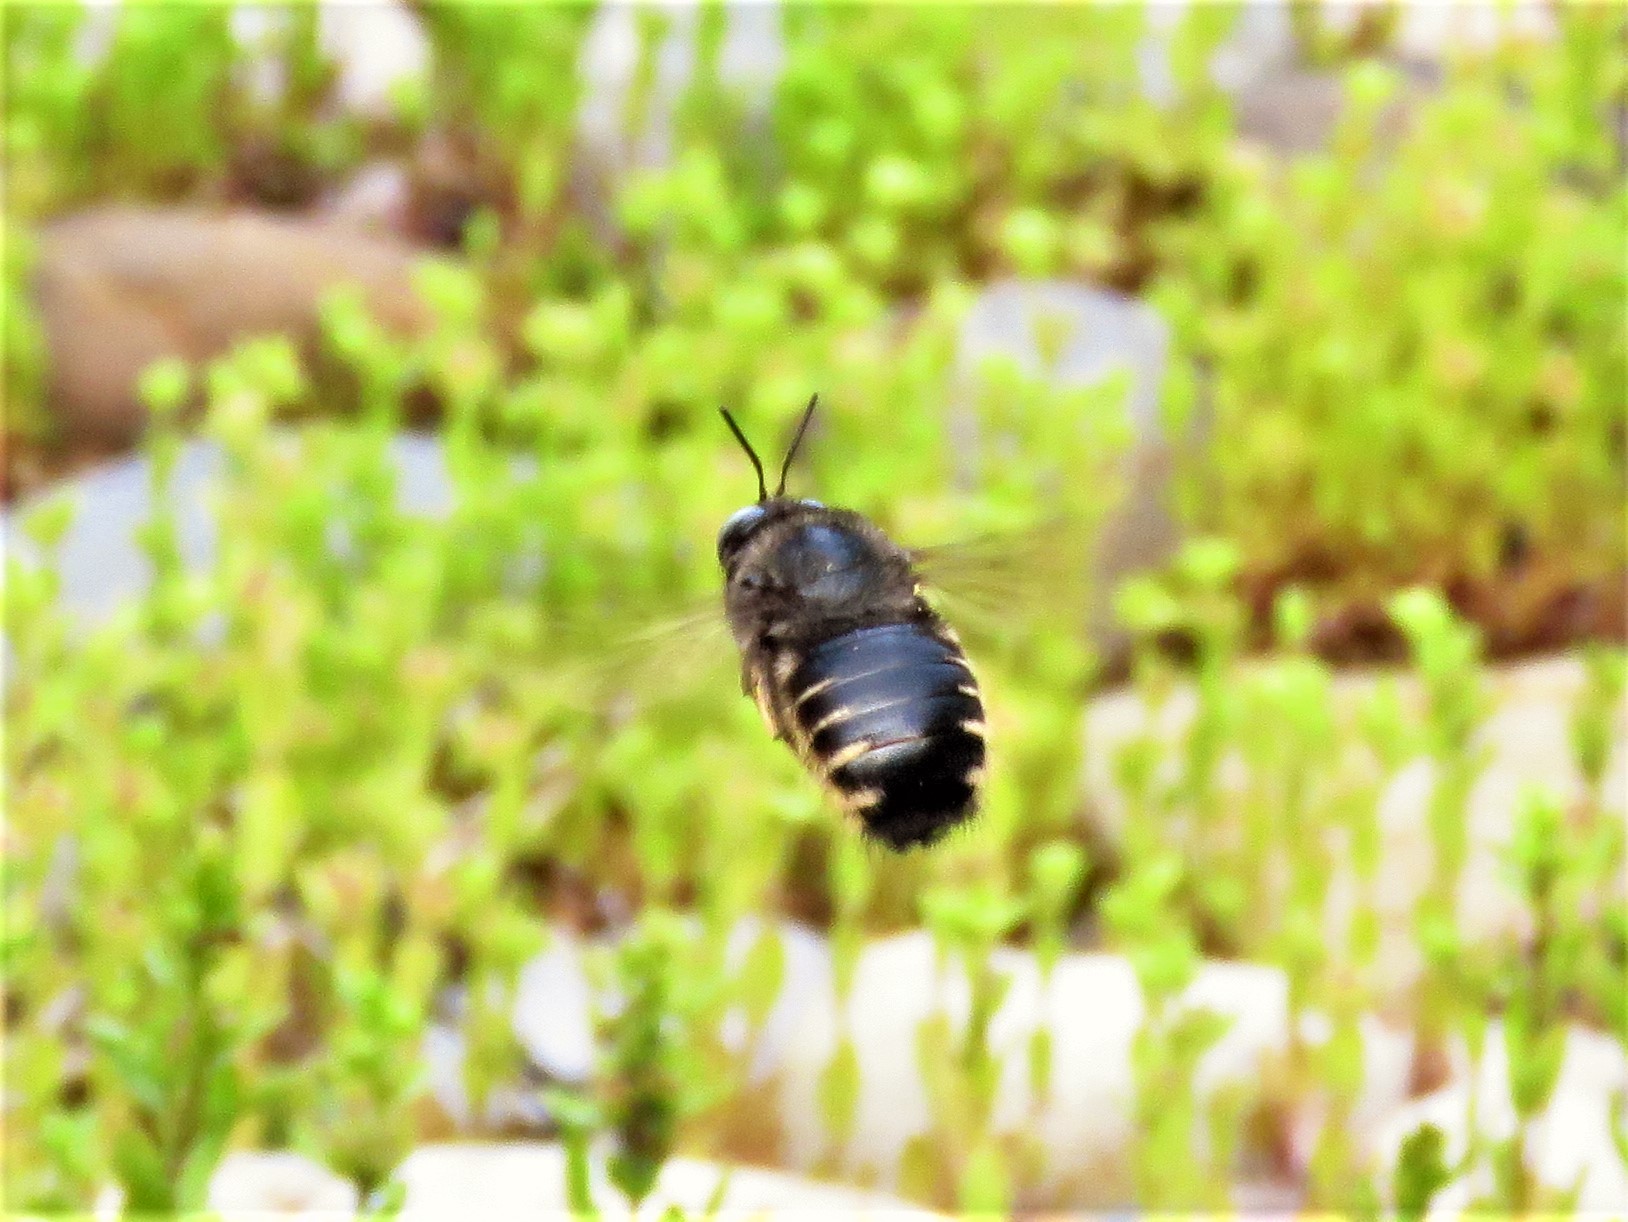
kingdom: Animalia
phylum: Arthropoda
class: Insecta
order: Hymenoptera
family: Apidae
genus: Xylocopa
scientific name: Xylocopa tabaniformis
